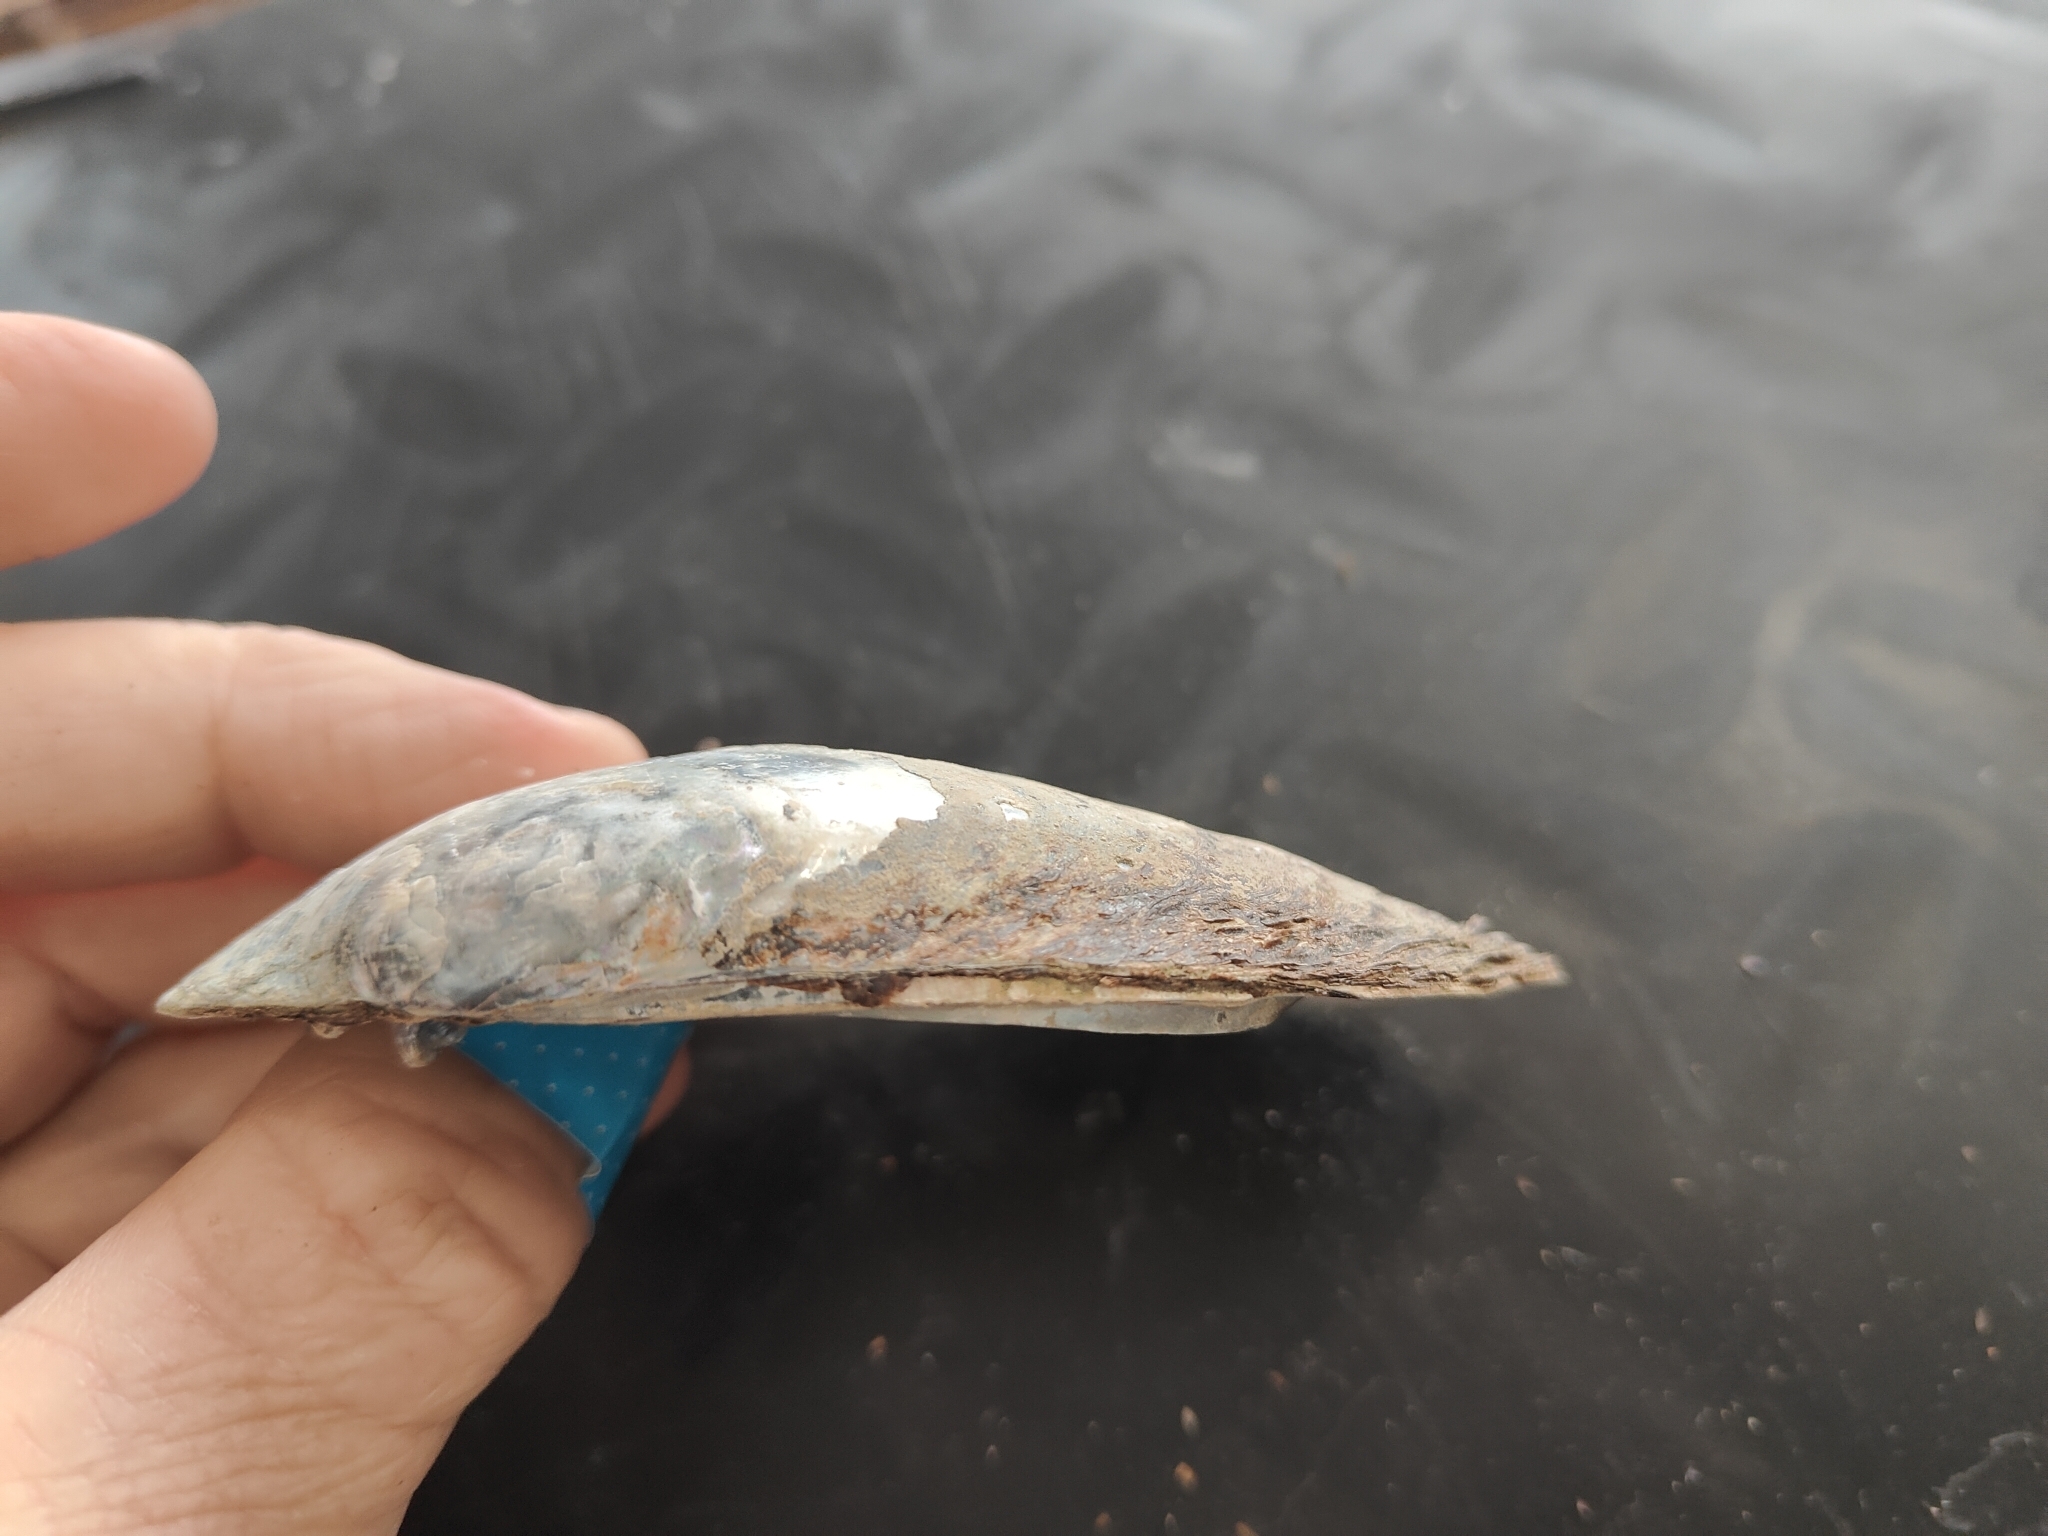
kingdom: Animalia
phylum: Mollusca
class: Bivalvia
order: Unionida
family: Unionidae
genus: Lampsilis
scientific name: Lampsilis siliquoidea
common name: Fatmucket
